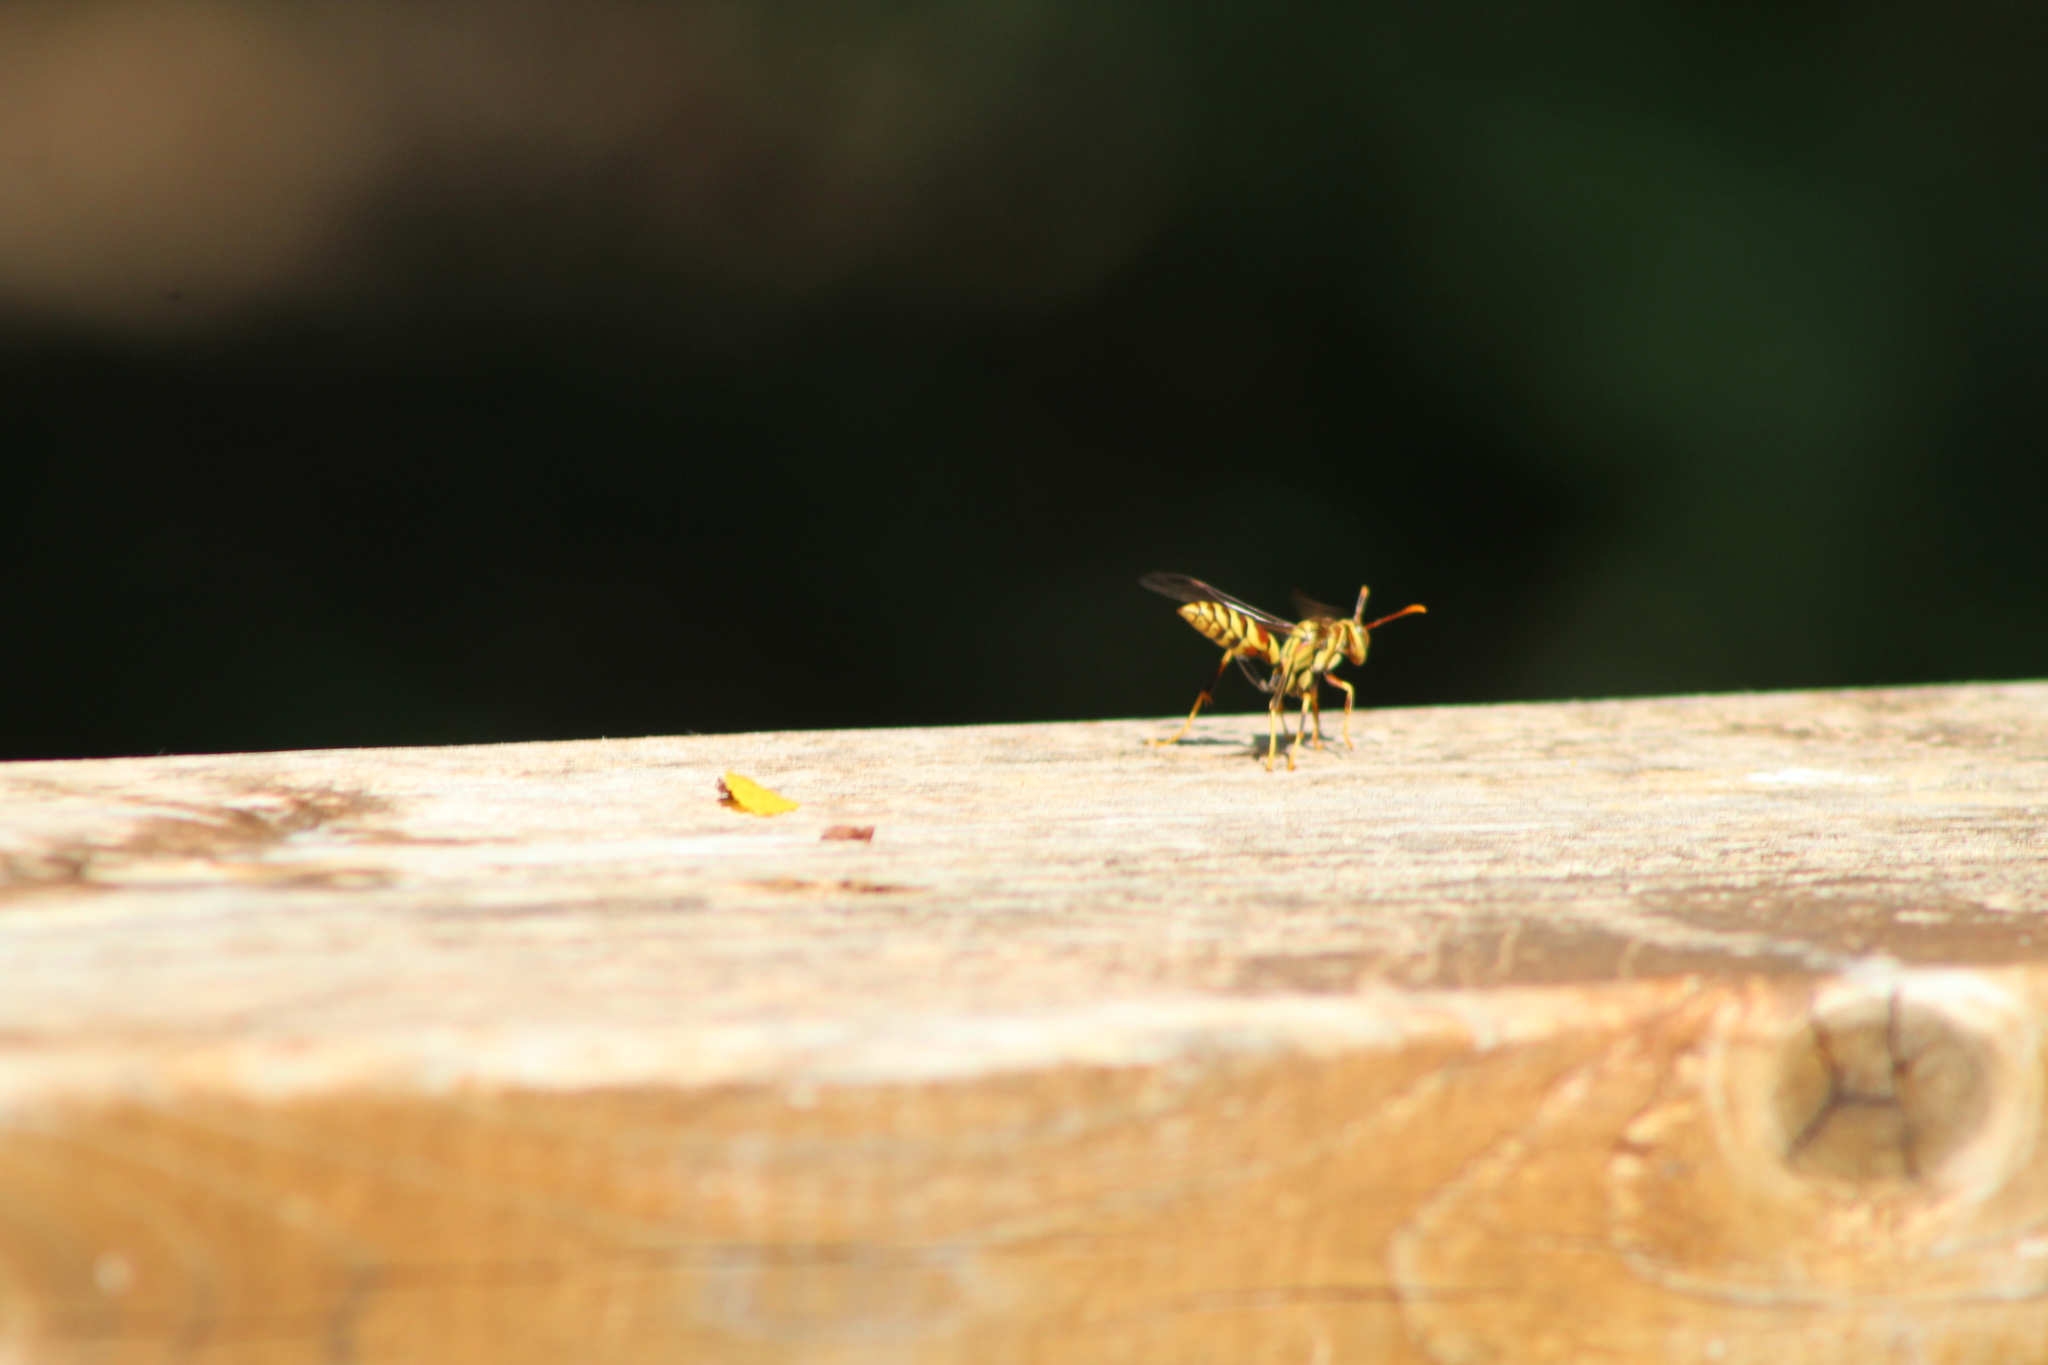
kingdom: Animalia
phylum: Arthropoda
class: Insecta
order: Hymenoptera
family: Eumenidae
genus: Polistes
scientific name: Polistes exclamans
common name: Paper wasp
